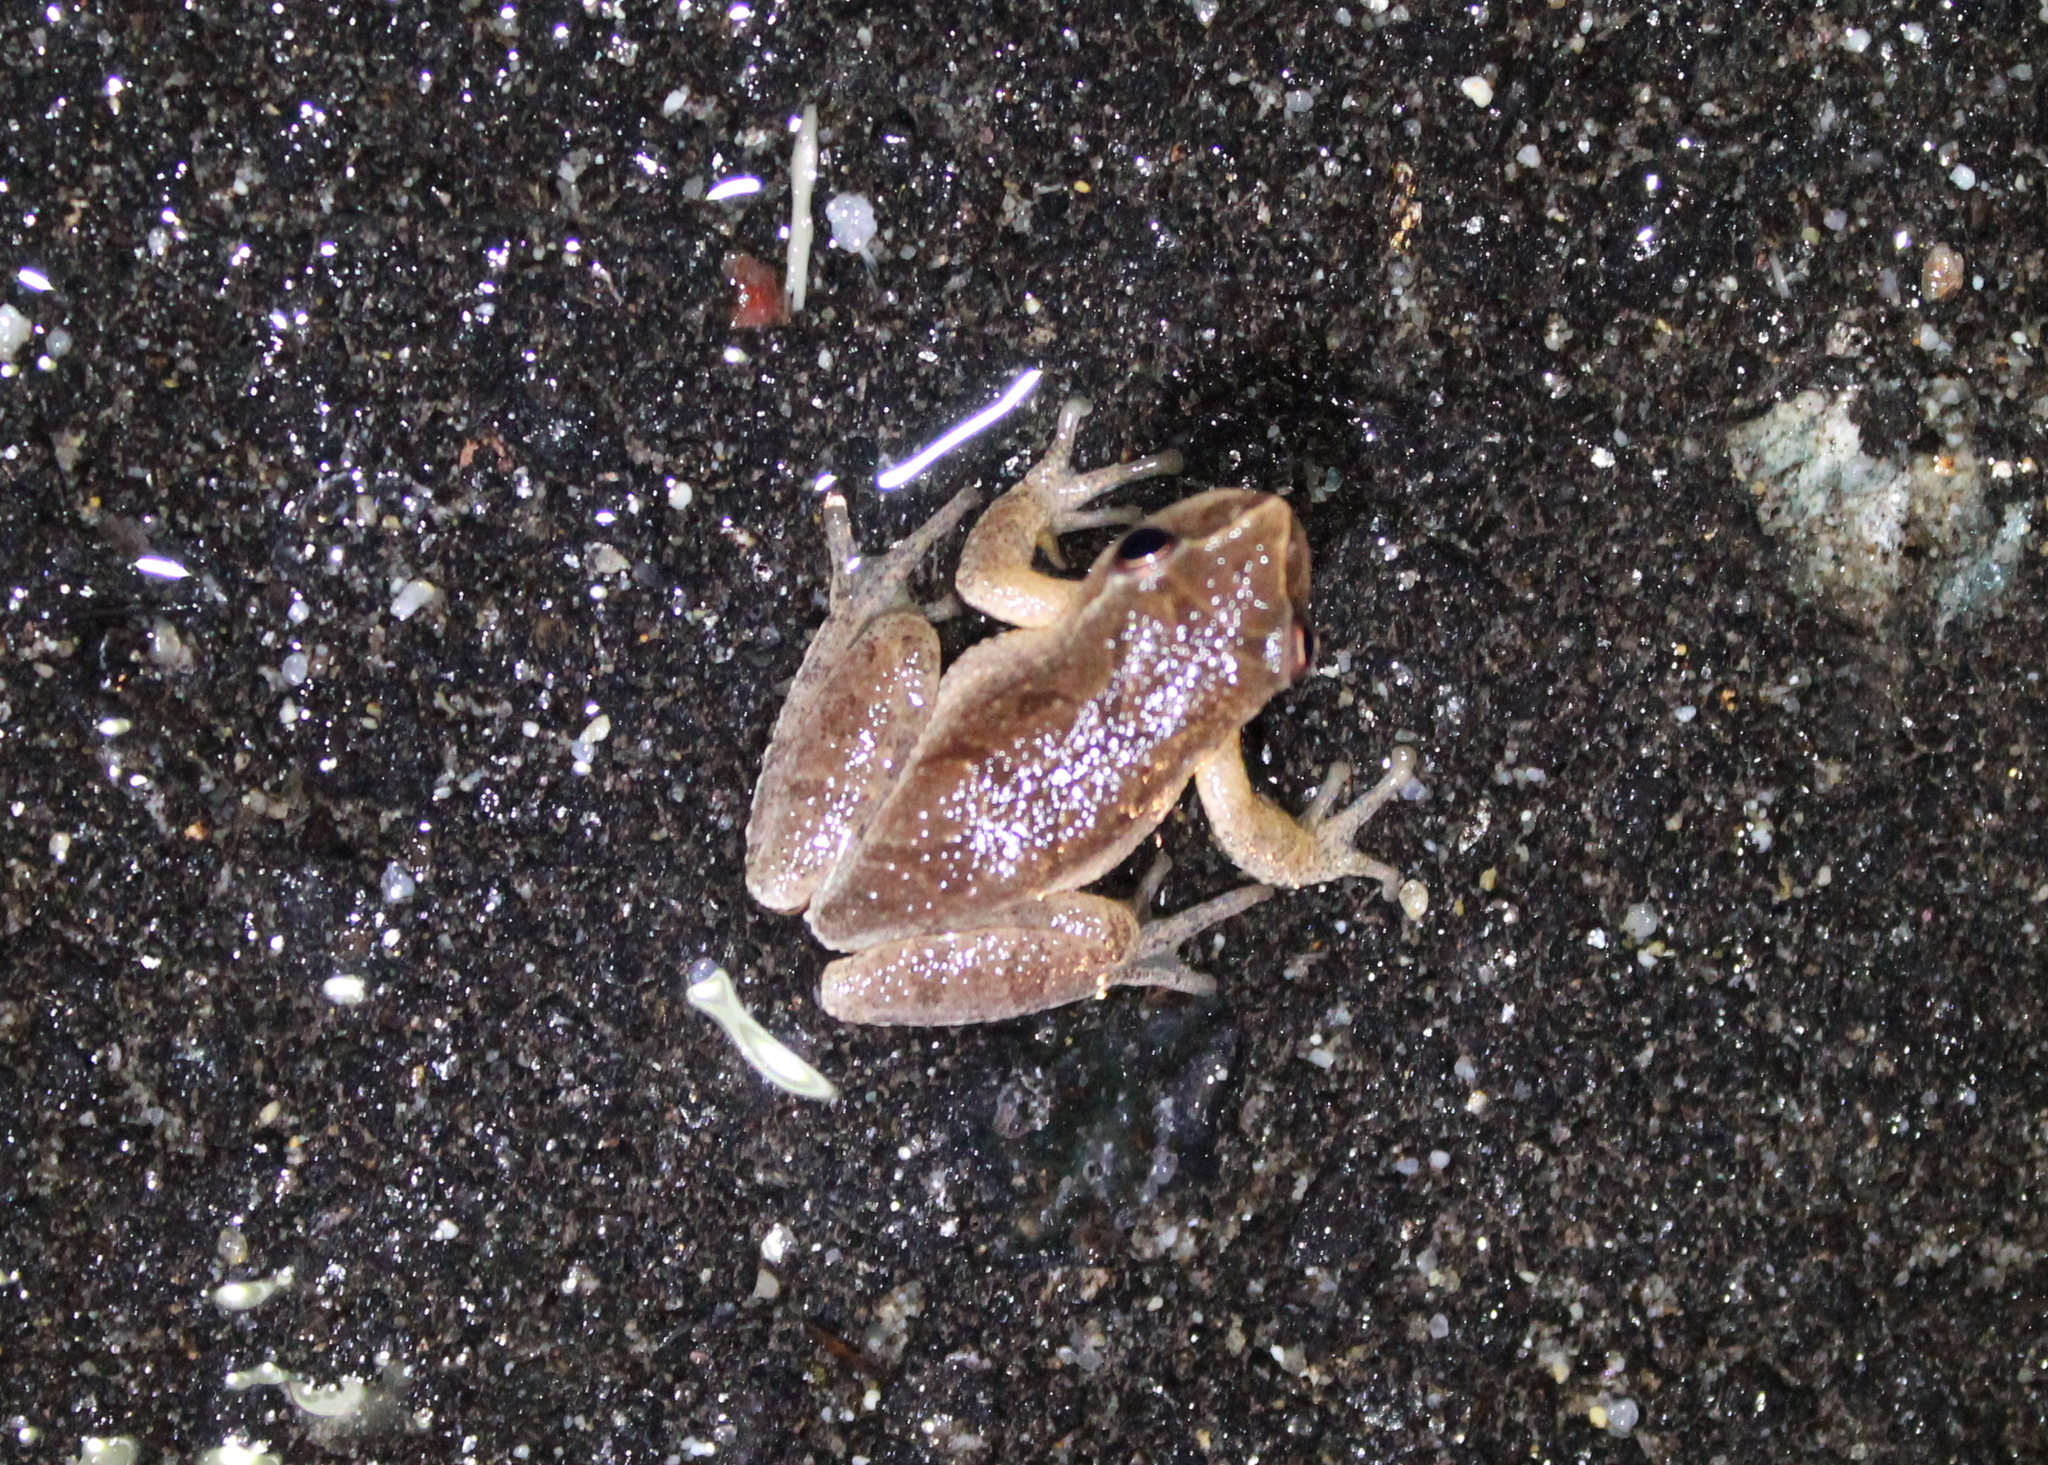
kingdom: Animalia
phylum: Chordata
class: Amphibia
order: Anura
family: Hylidae
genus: Pseudacris
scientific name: Pseudacris crucifer
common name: Spring peeper
